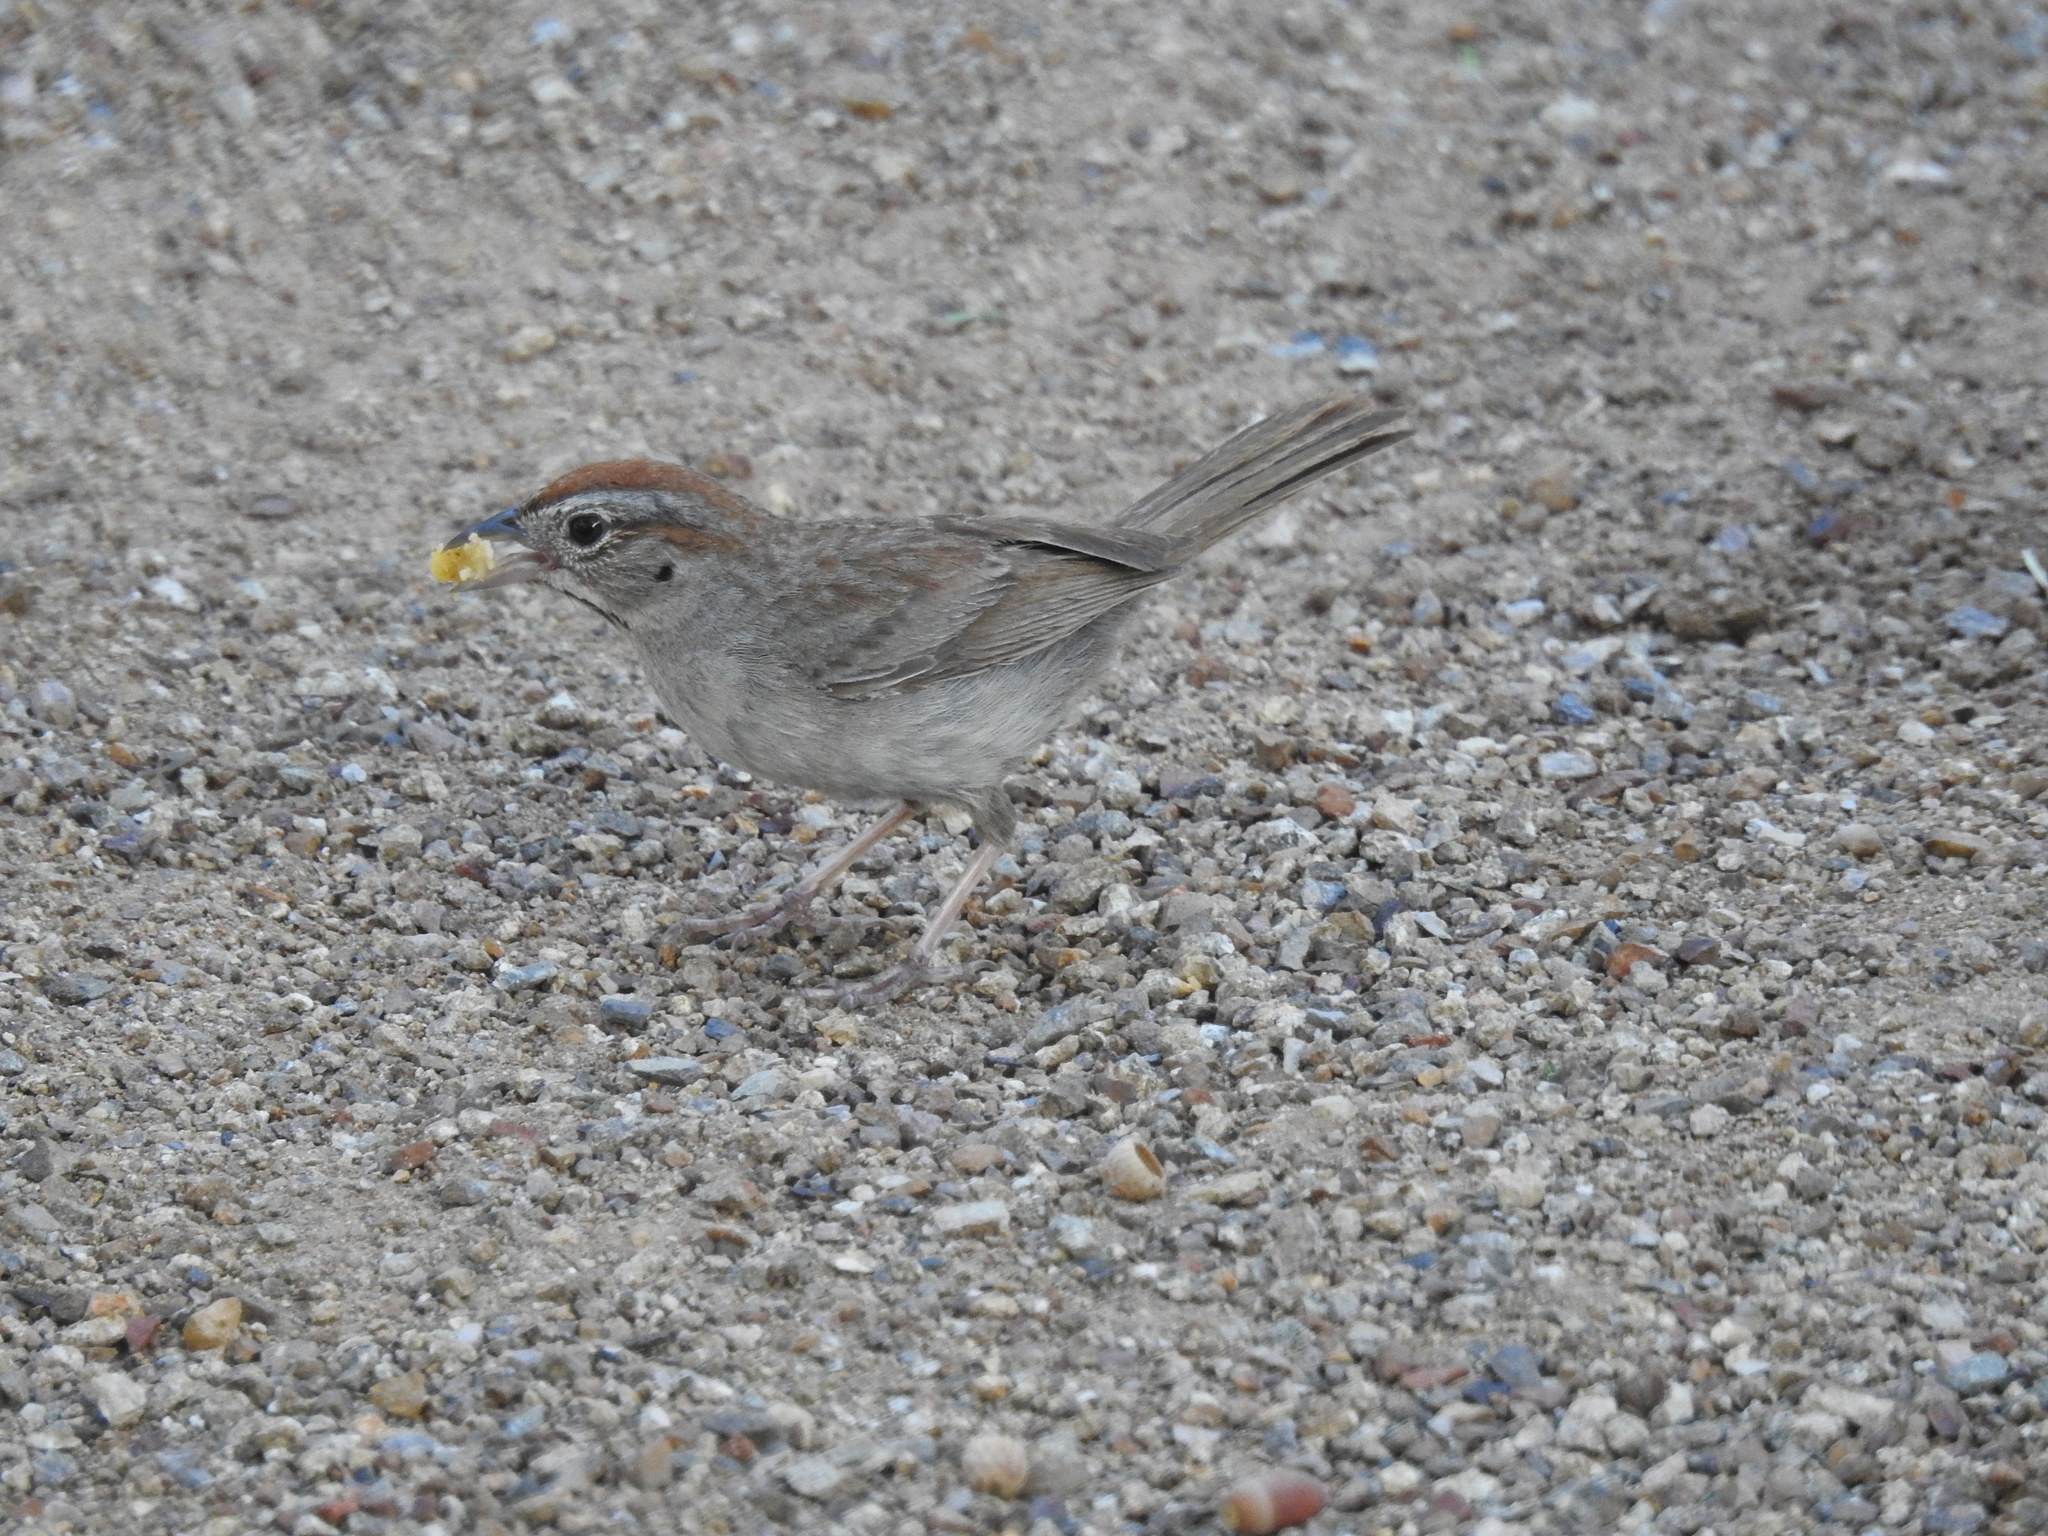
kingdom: Animalia
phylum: Chordata
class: Aves
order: Passeriformes
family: Passerellidae
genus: Aimophila
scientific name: Aimophila ruficeps
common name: Rufous-crowned sparrow
